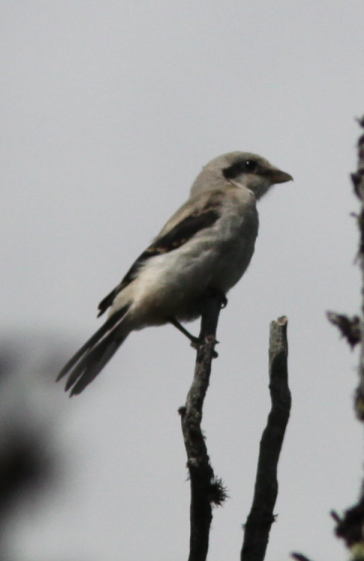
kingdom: Animalia
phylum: Chordata
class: Aves
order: Passeriformes
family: Laniidae
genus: Lanius
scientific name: Lanius excubitor
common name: Great grey shrike
